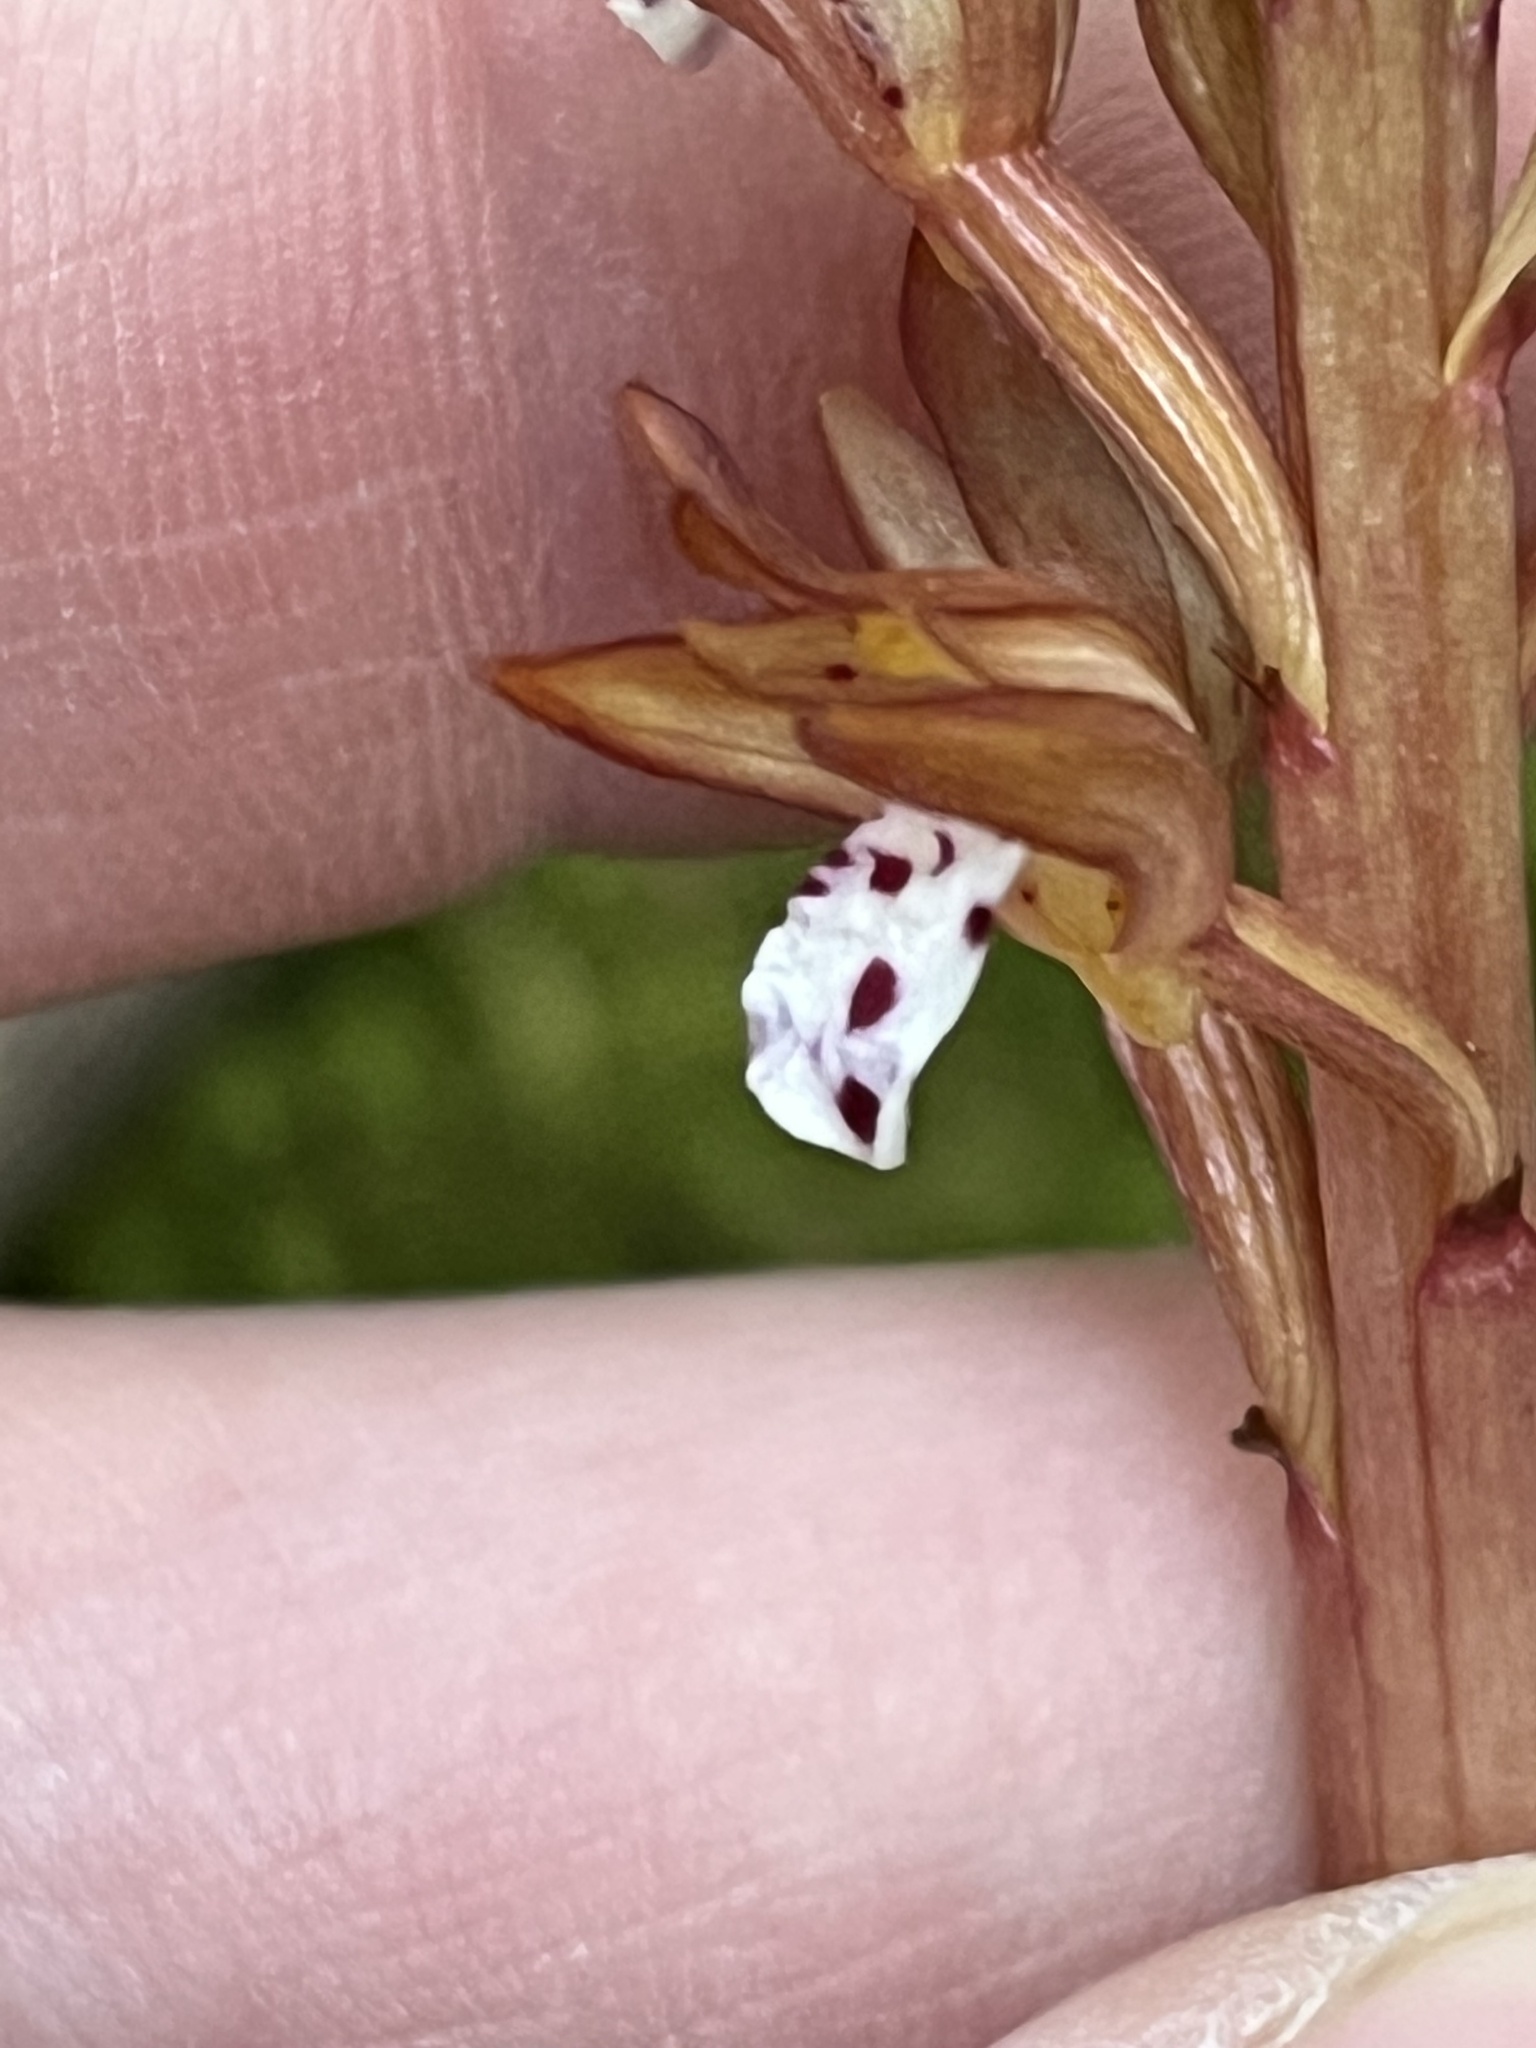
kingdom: Plantae
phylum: Tracheophyta
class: Liliopsida
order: Asparagales
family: Orchidaceae
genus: Corallorhiza
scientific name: Corallorhiza maculata
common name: Spotted coralroot
